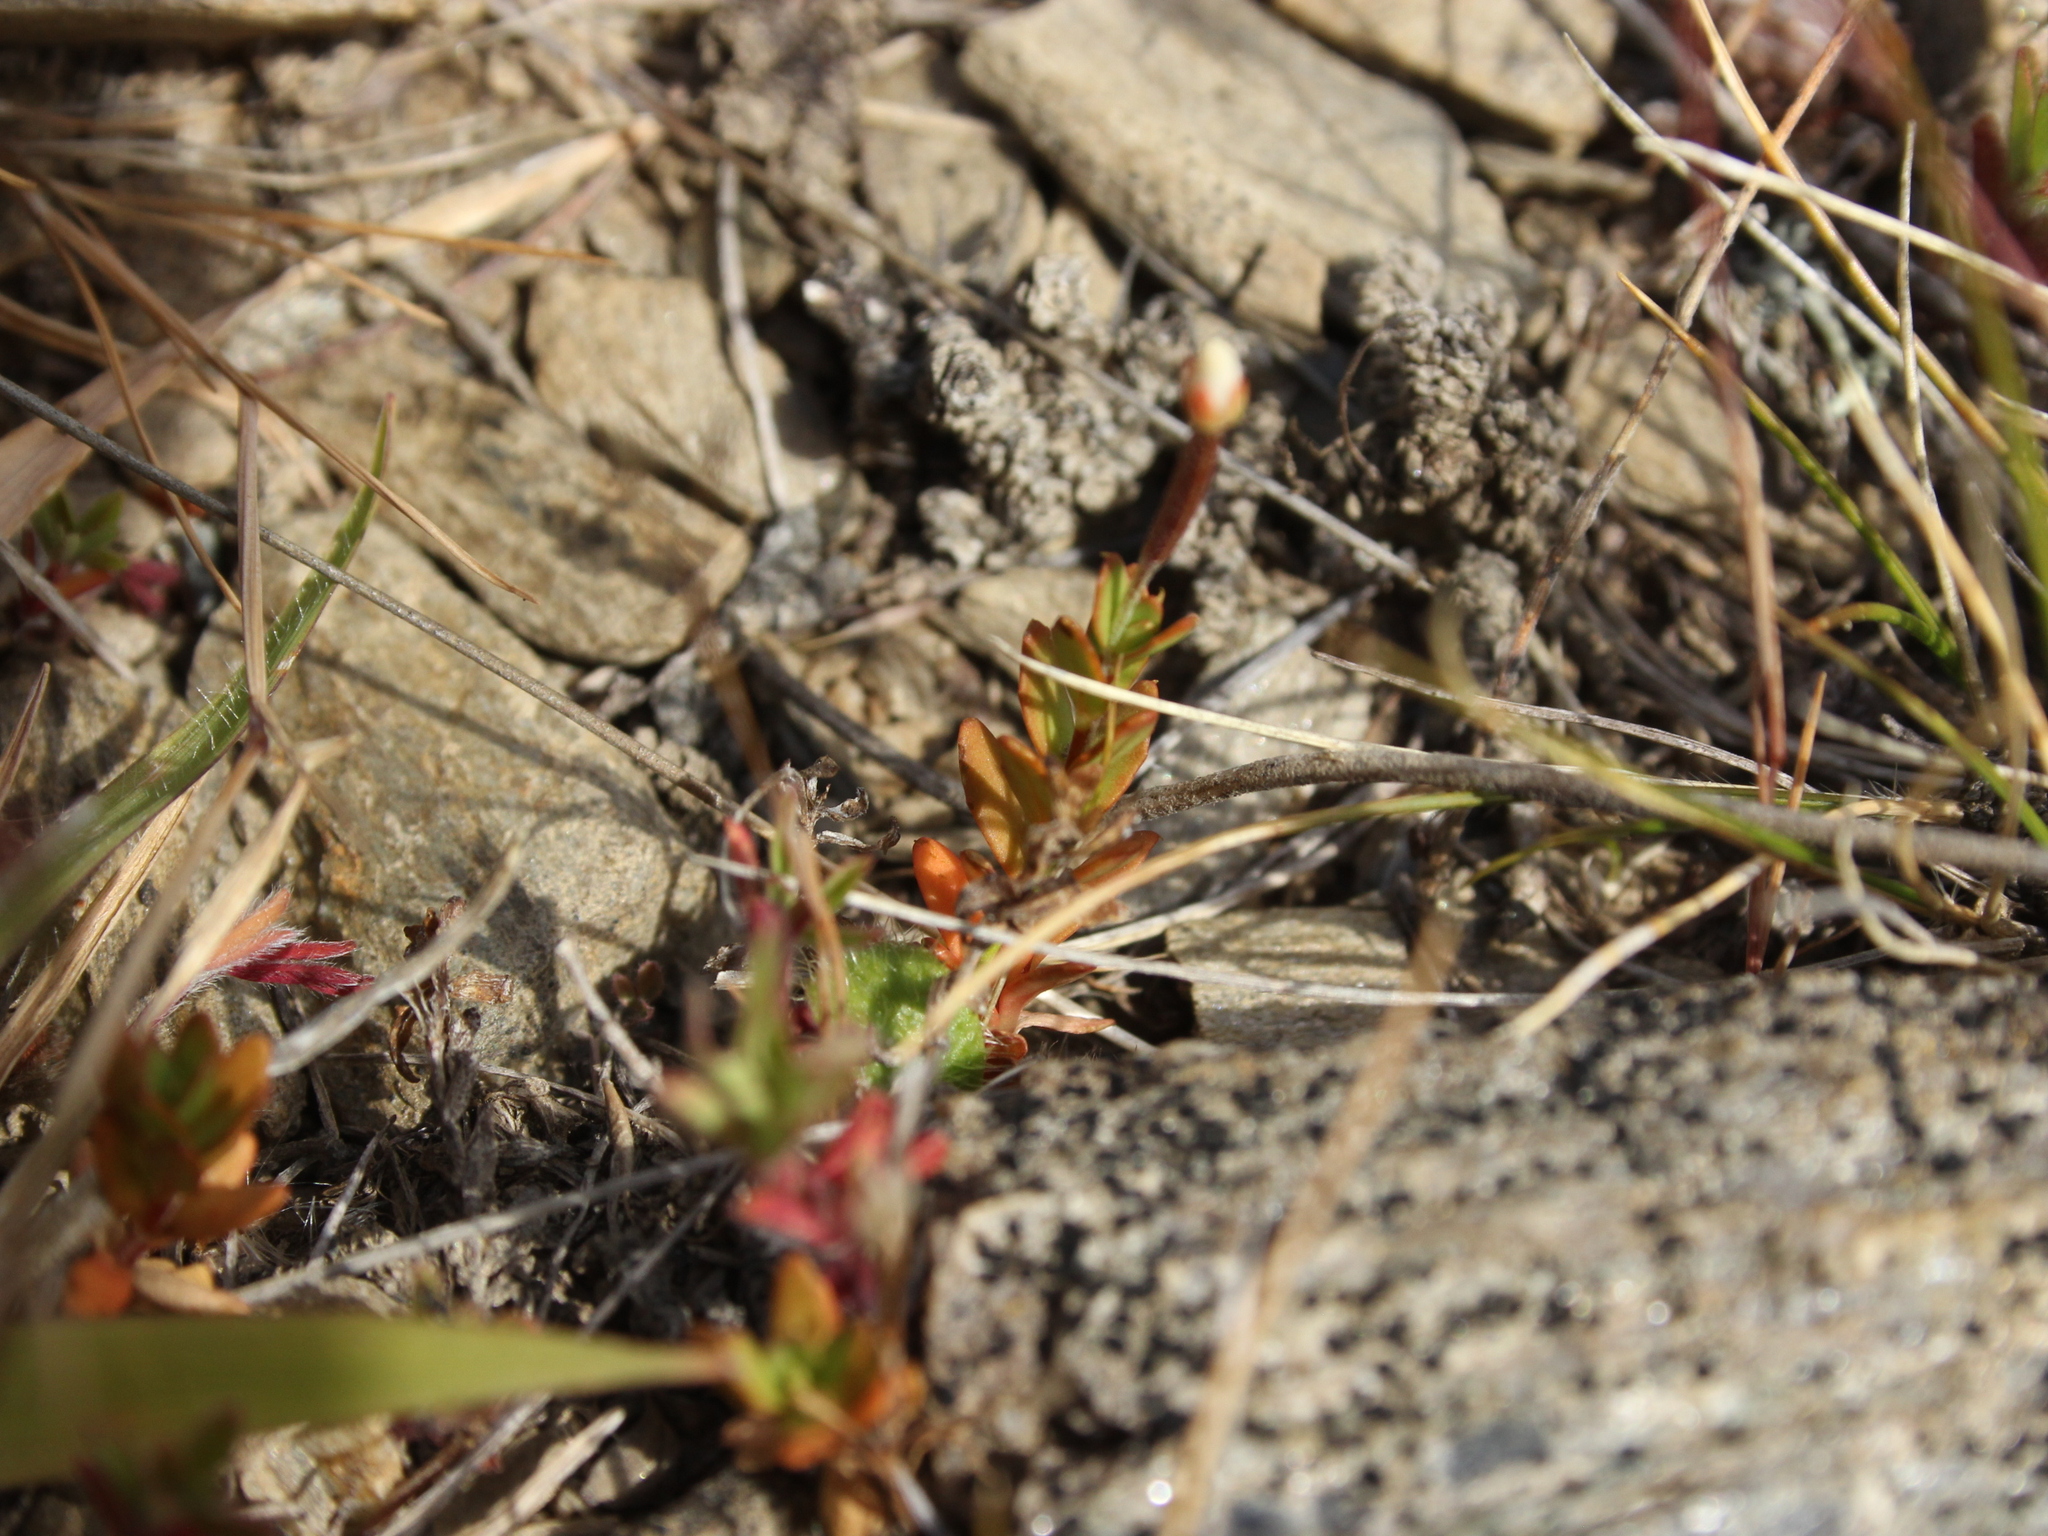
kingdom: Plantae
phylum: Tracheophyta
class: Magnoliopsida
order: Myrtales
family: Onagraceae
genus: Epilobium
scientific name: Epilobium hectorii
